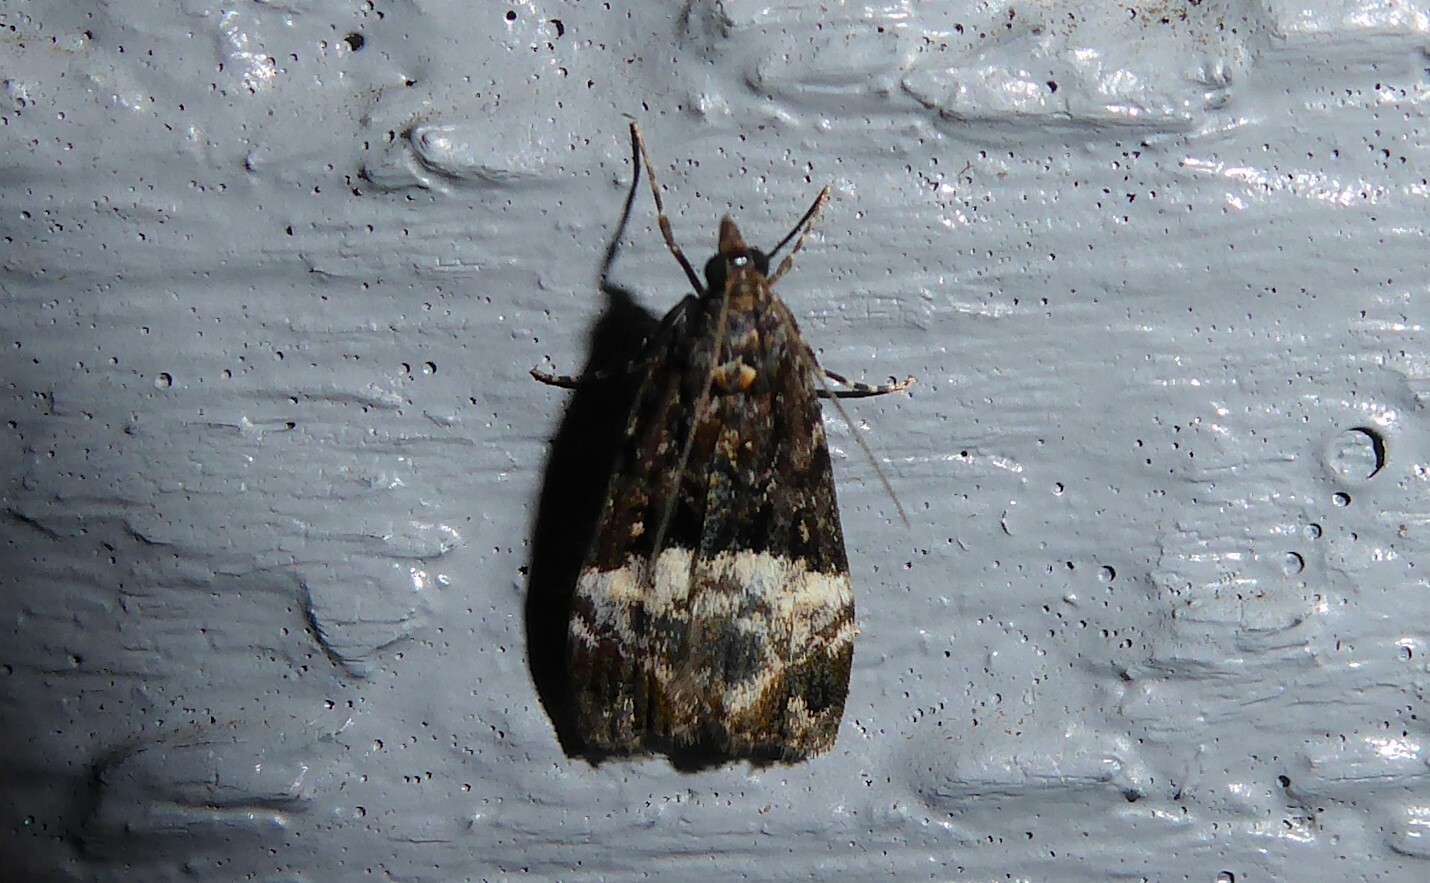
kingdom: Animalia
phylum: Arthropoda
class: Insecta
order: Lepidoptera
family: Crambidae
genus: Scoparia
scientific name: Scoparia minusculalis
